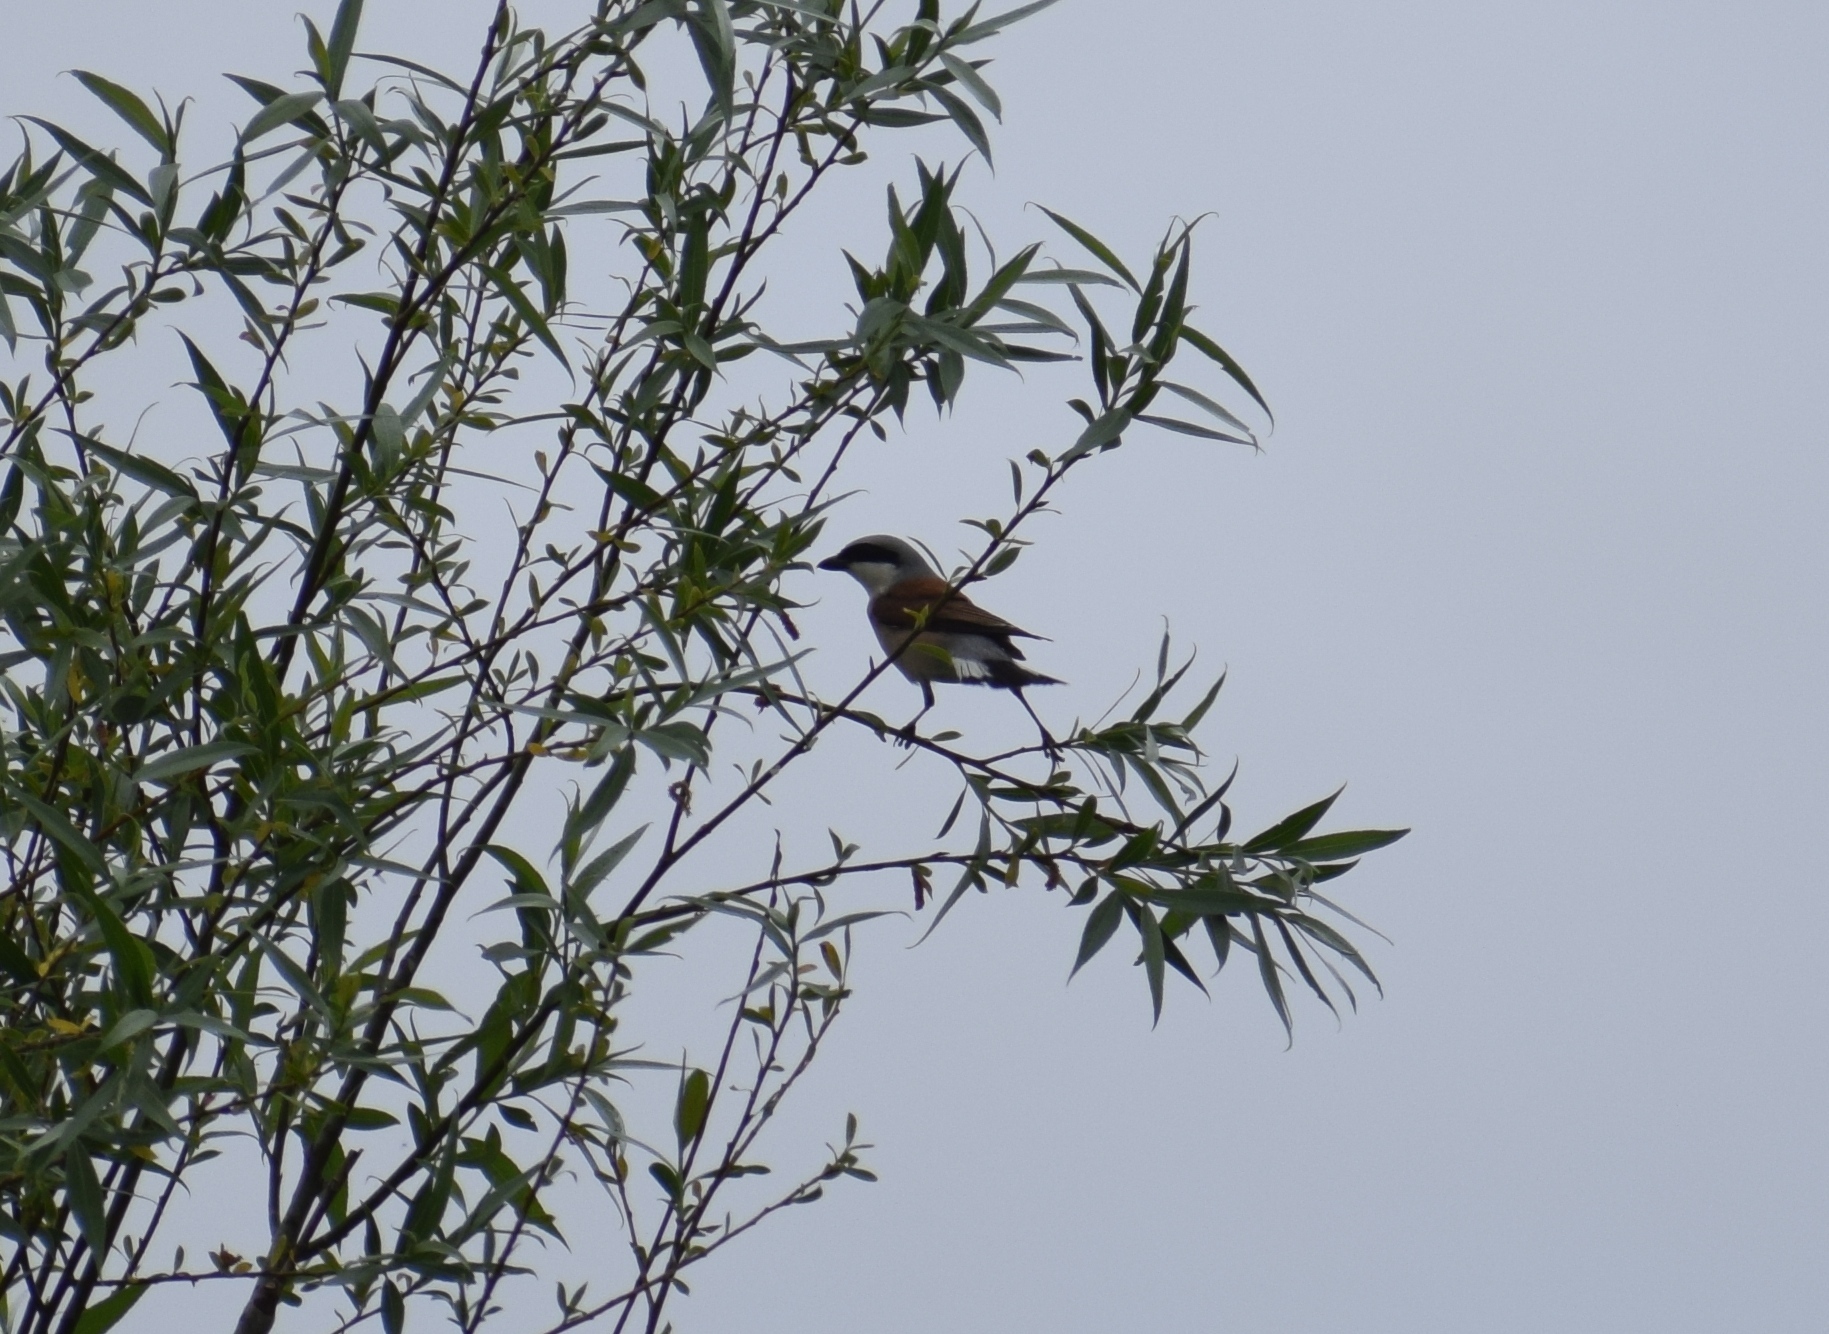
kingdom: Animalia
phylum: Chordata
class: Aves
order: Passeriformes
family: Laniidae
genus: Lanius
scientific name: Lanius collurio
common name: Red-backed shrike
